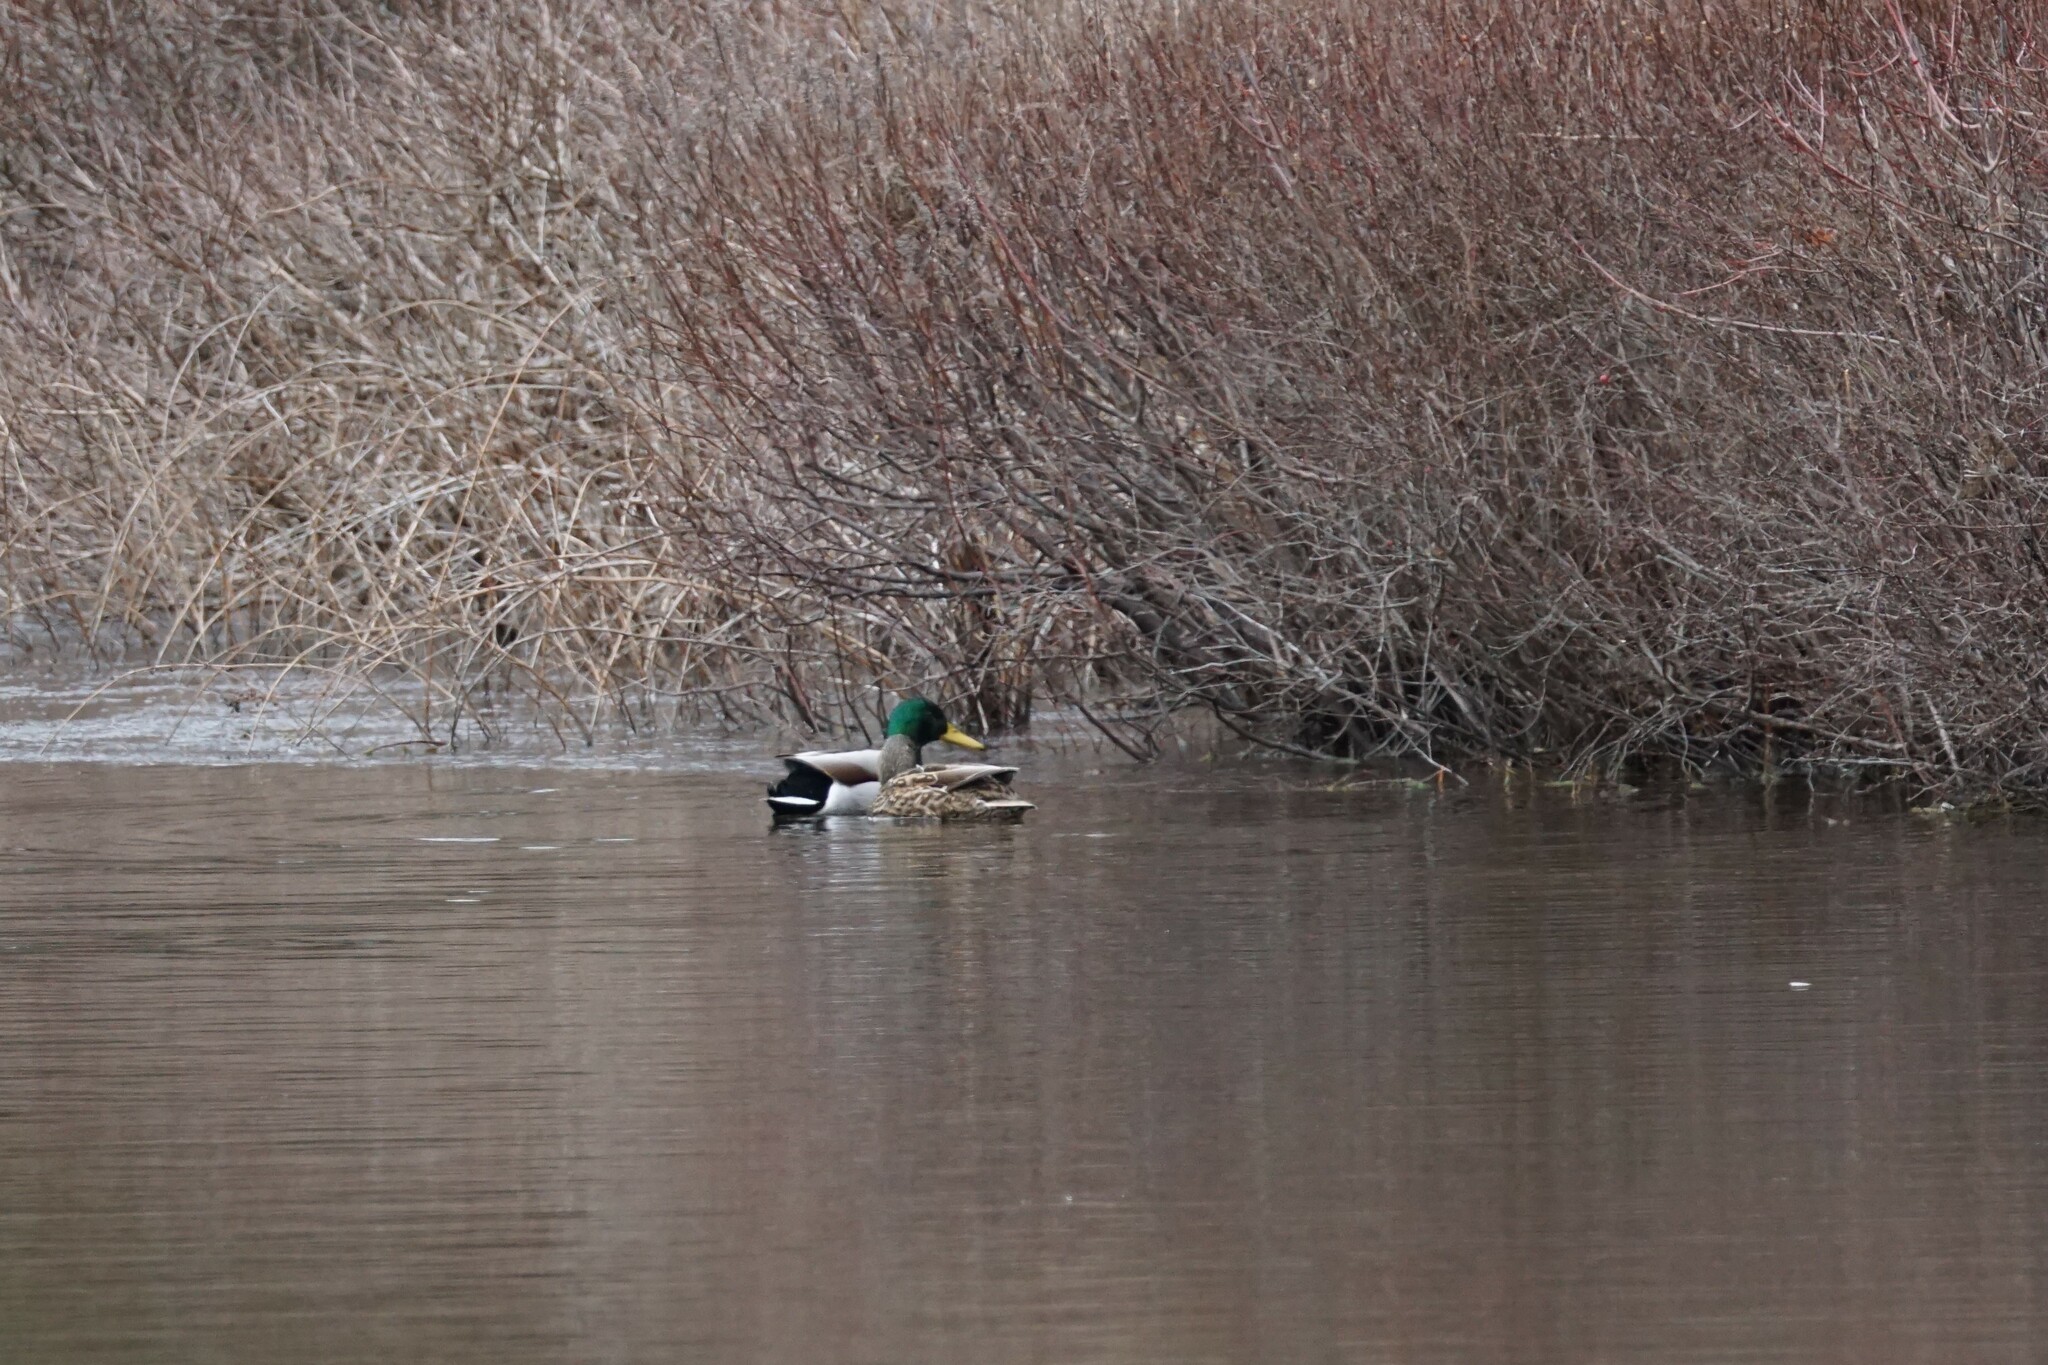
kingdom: Animalia
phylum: Chordata
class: Aves
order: Anseriformes
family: Anatidae
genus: Anas
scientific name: Anas platyrhynchos
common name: Mallard
